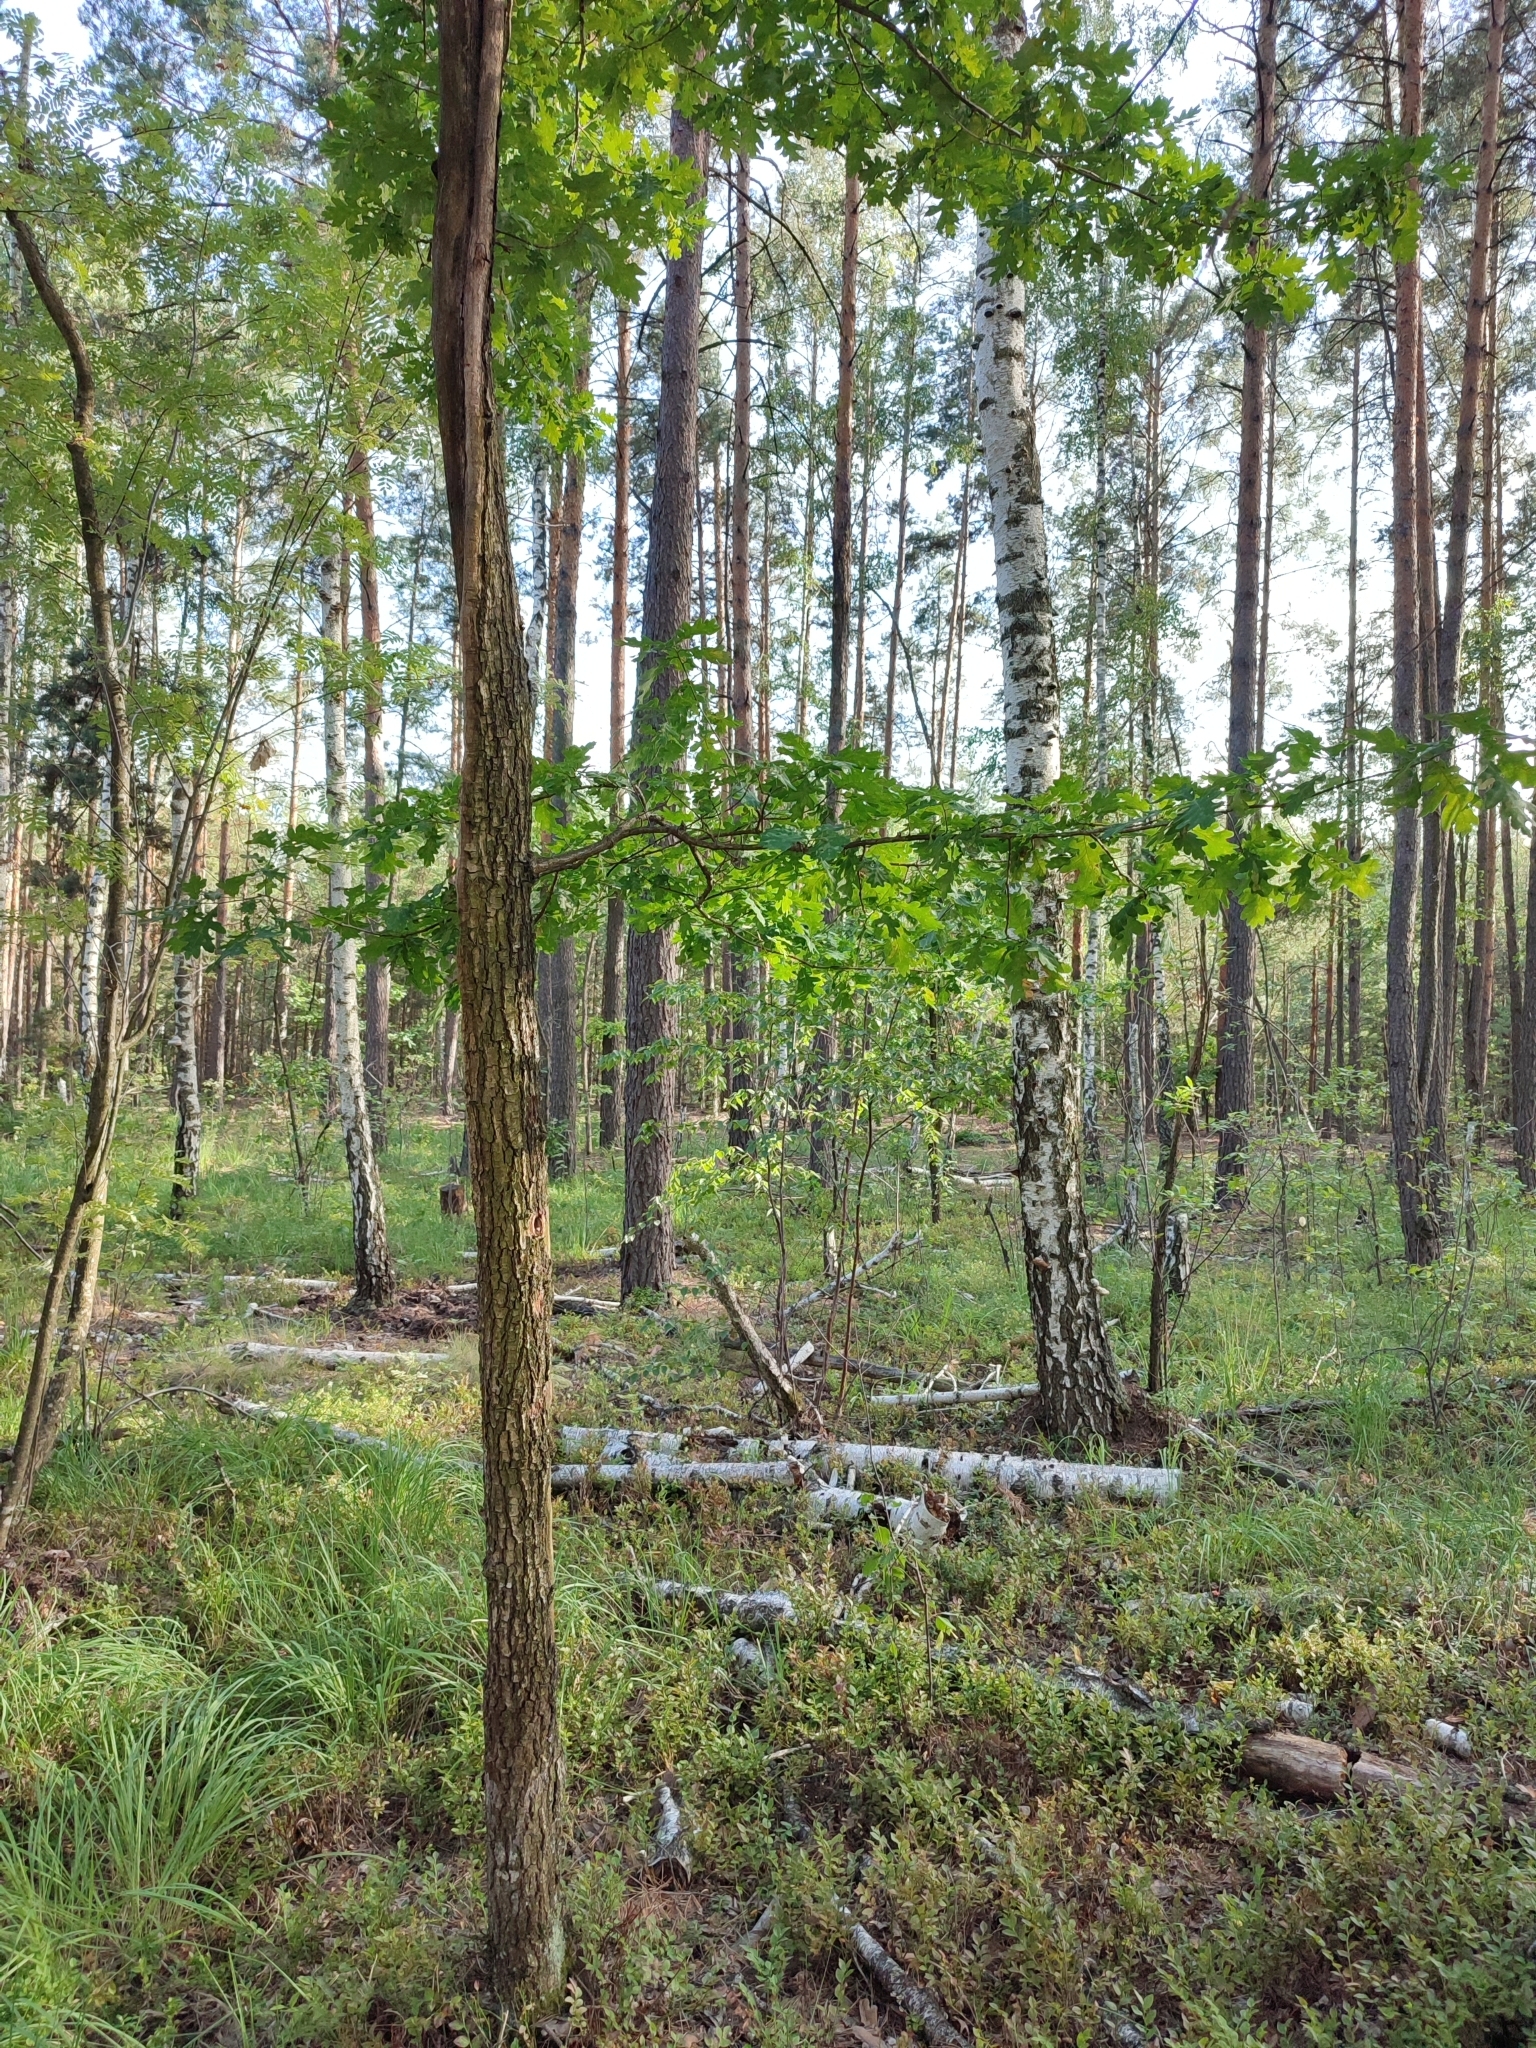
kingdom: Plantae
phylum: Tracheophyta
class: Magnoliopsida
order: Fagales
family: Fagaceae
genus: Quercus
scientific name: Quercus robur
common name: Pedunculate oak
